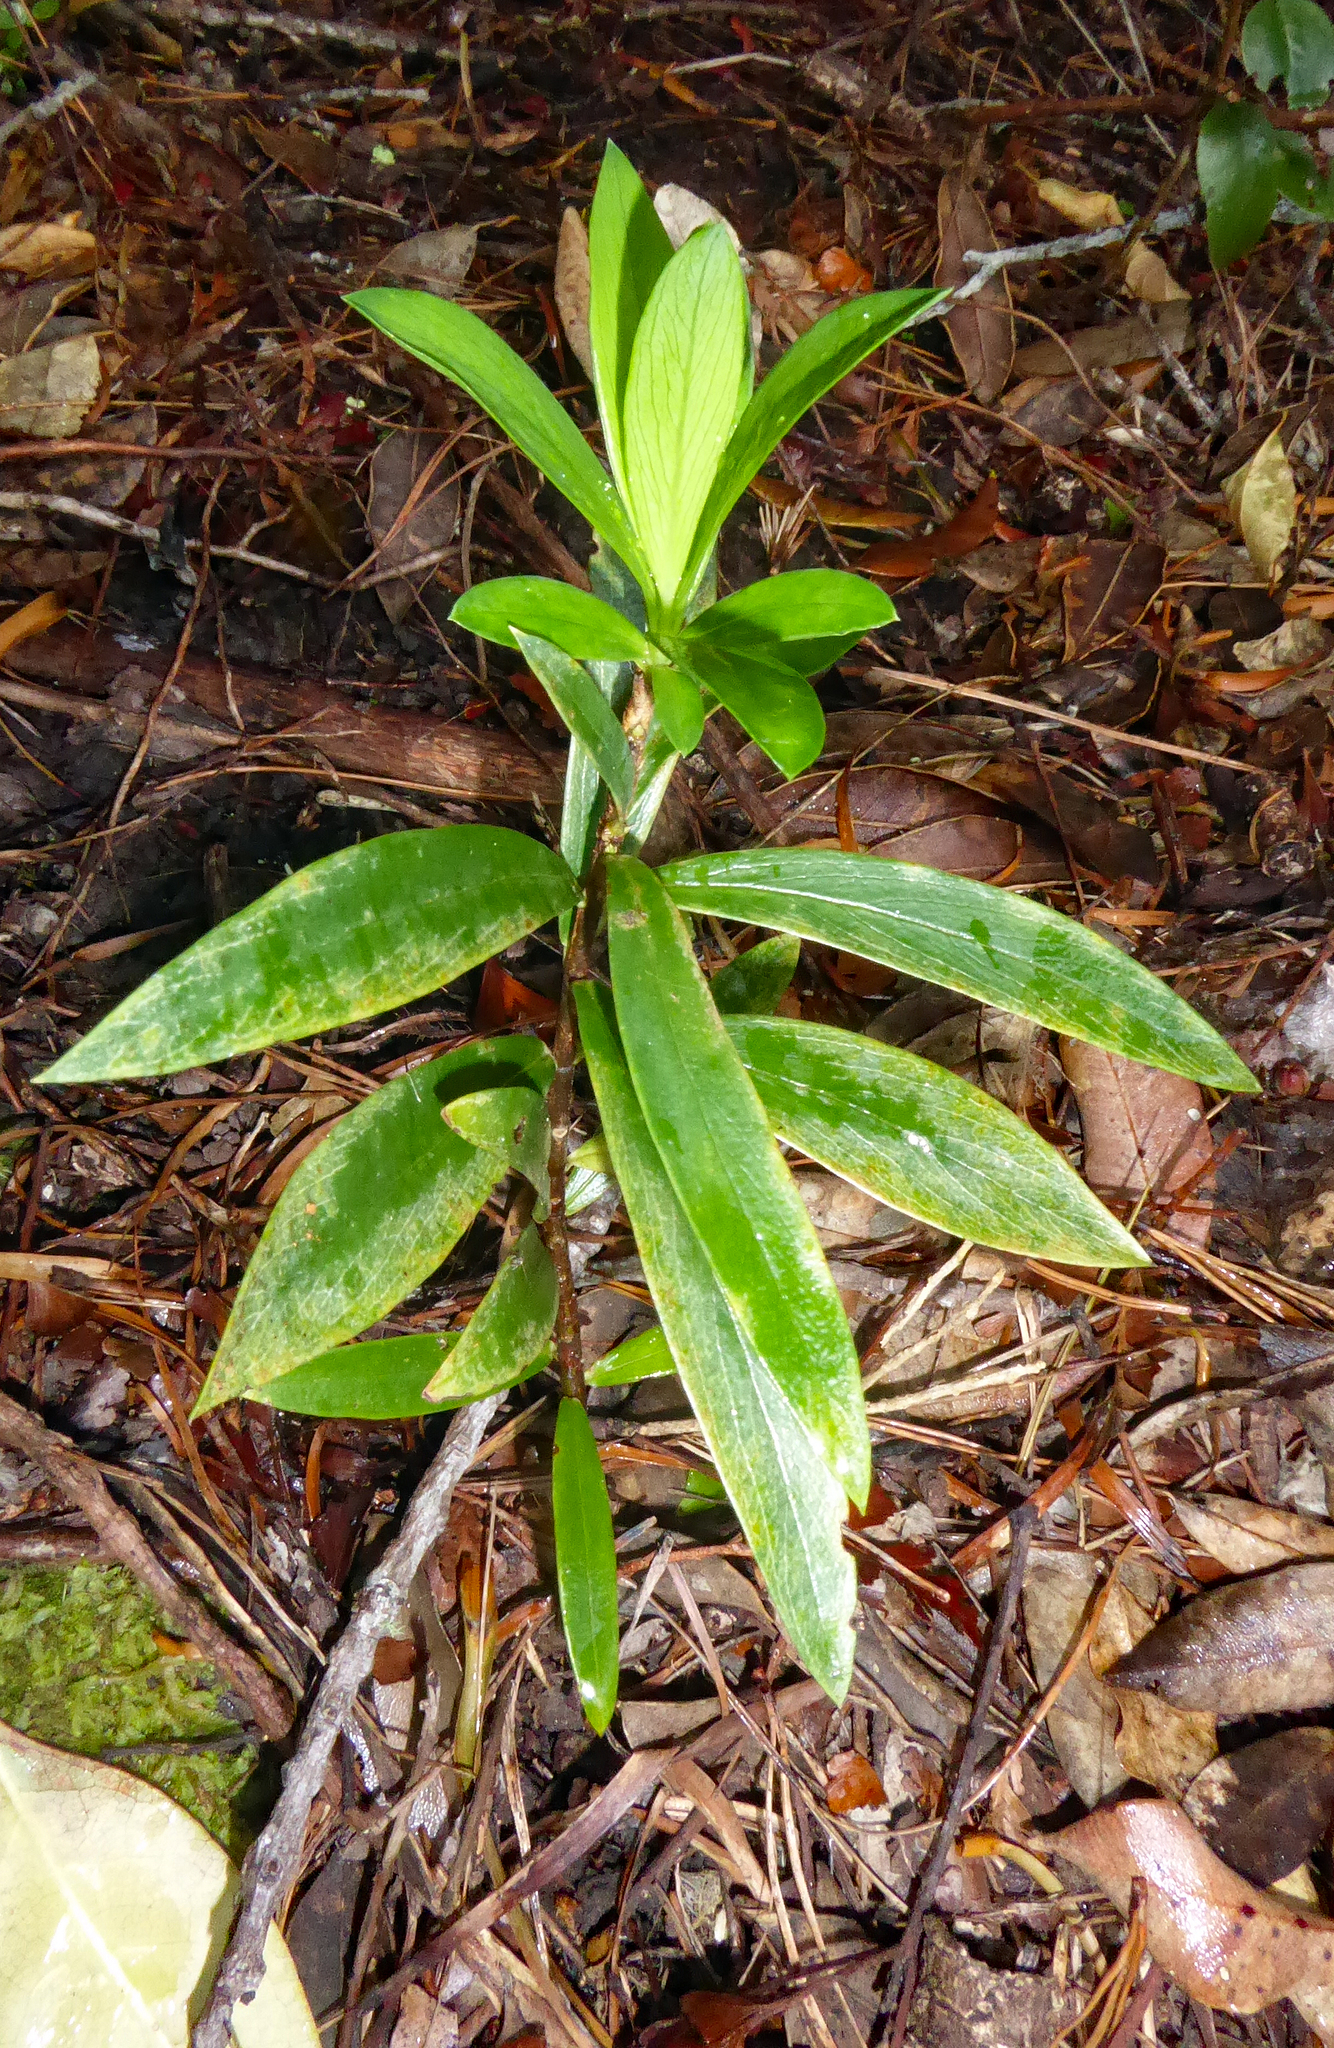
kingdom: Plantae
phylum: Tracheophyta
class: Magnoliopsida
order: Malvales
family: Thymelaeaceae
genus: Pimelea
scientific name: Pimelea longifolia
